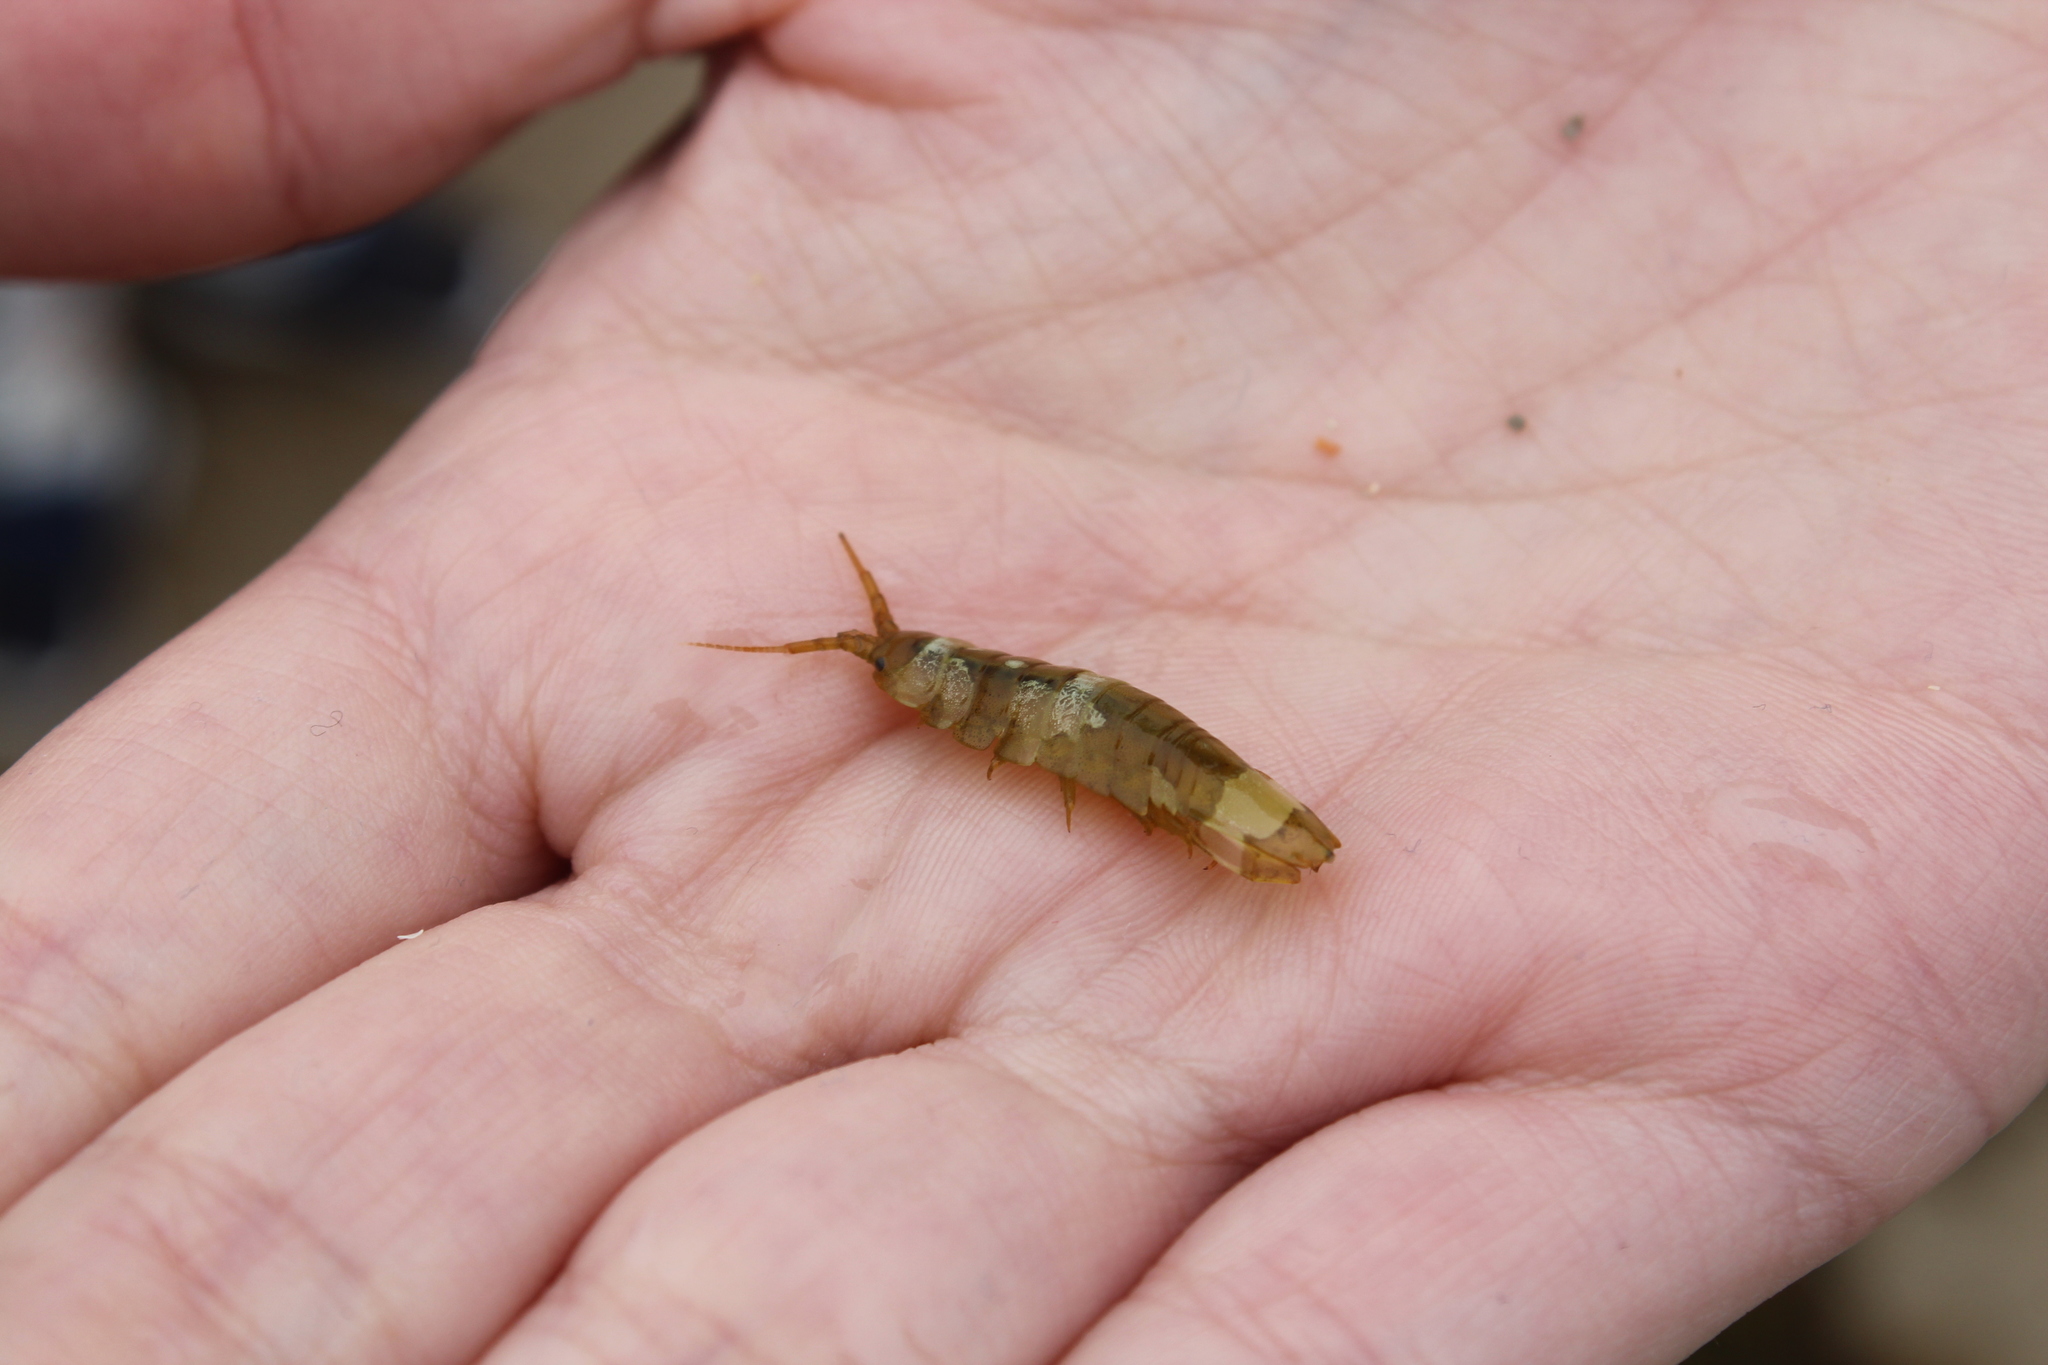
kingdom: Animalia
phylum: Arthropoda
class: Malacostraca
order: Isopoda
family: Idoteidae
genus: Idotea
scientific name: Idotea balthica
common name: Baltic isopod
